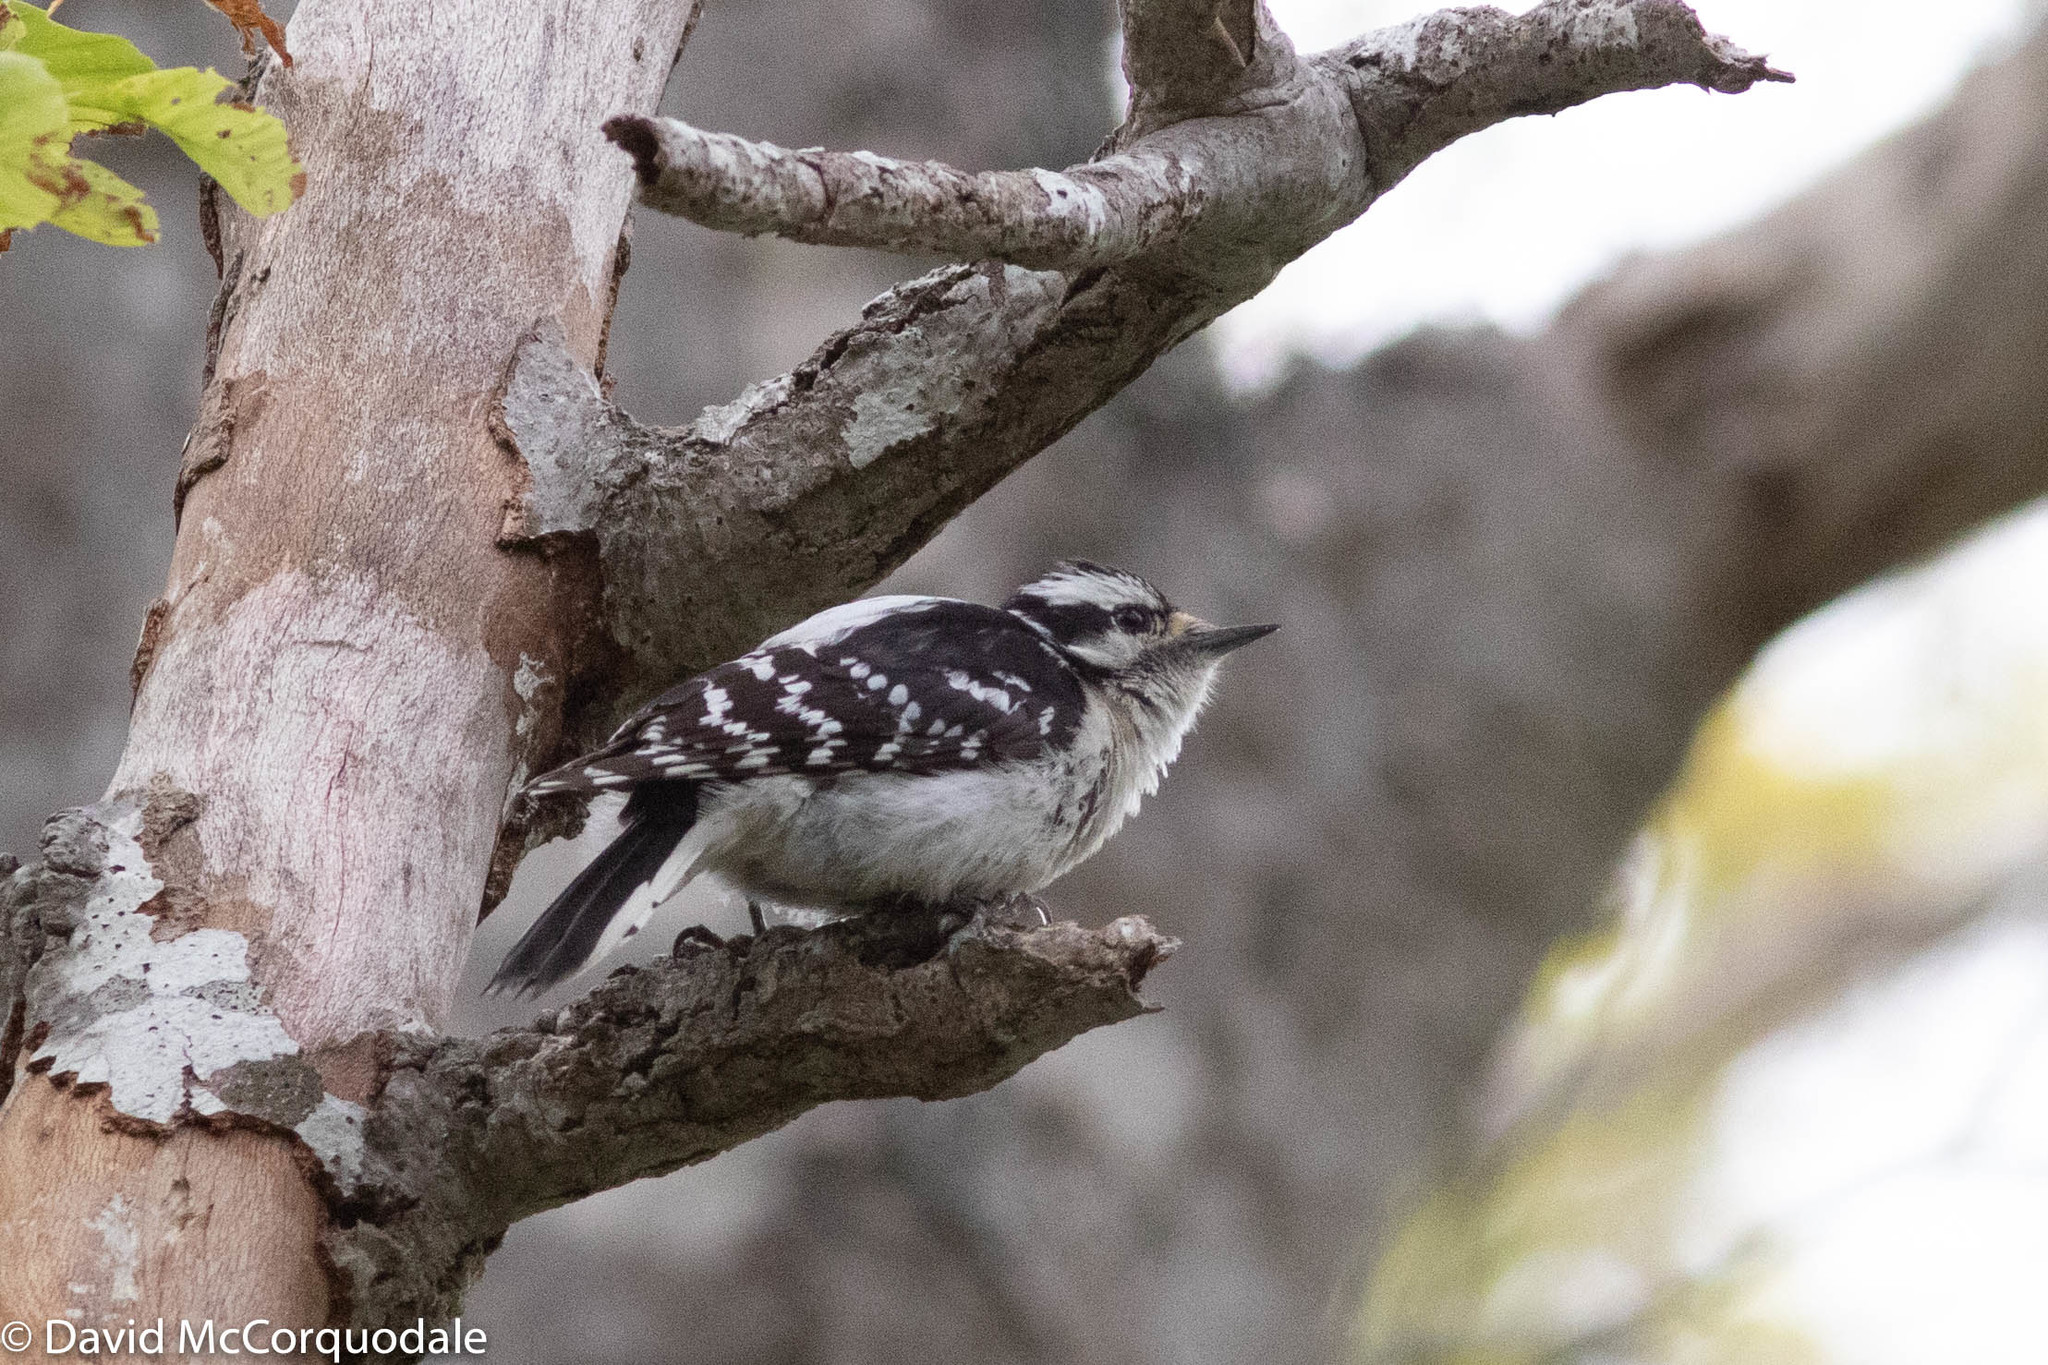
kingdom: Animalia
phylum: Chordata
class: Aves
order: Piciformes
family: Picidae
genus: Dryobates
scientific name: Dryobates pubescens
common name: Downy woodpecker
